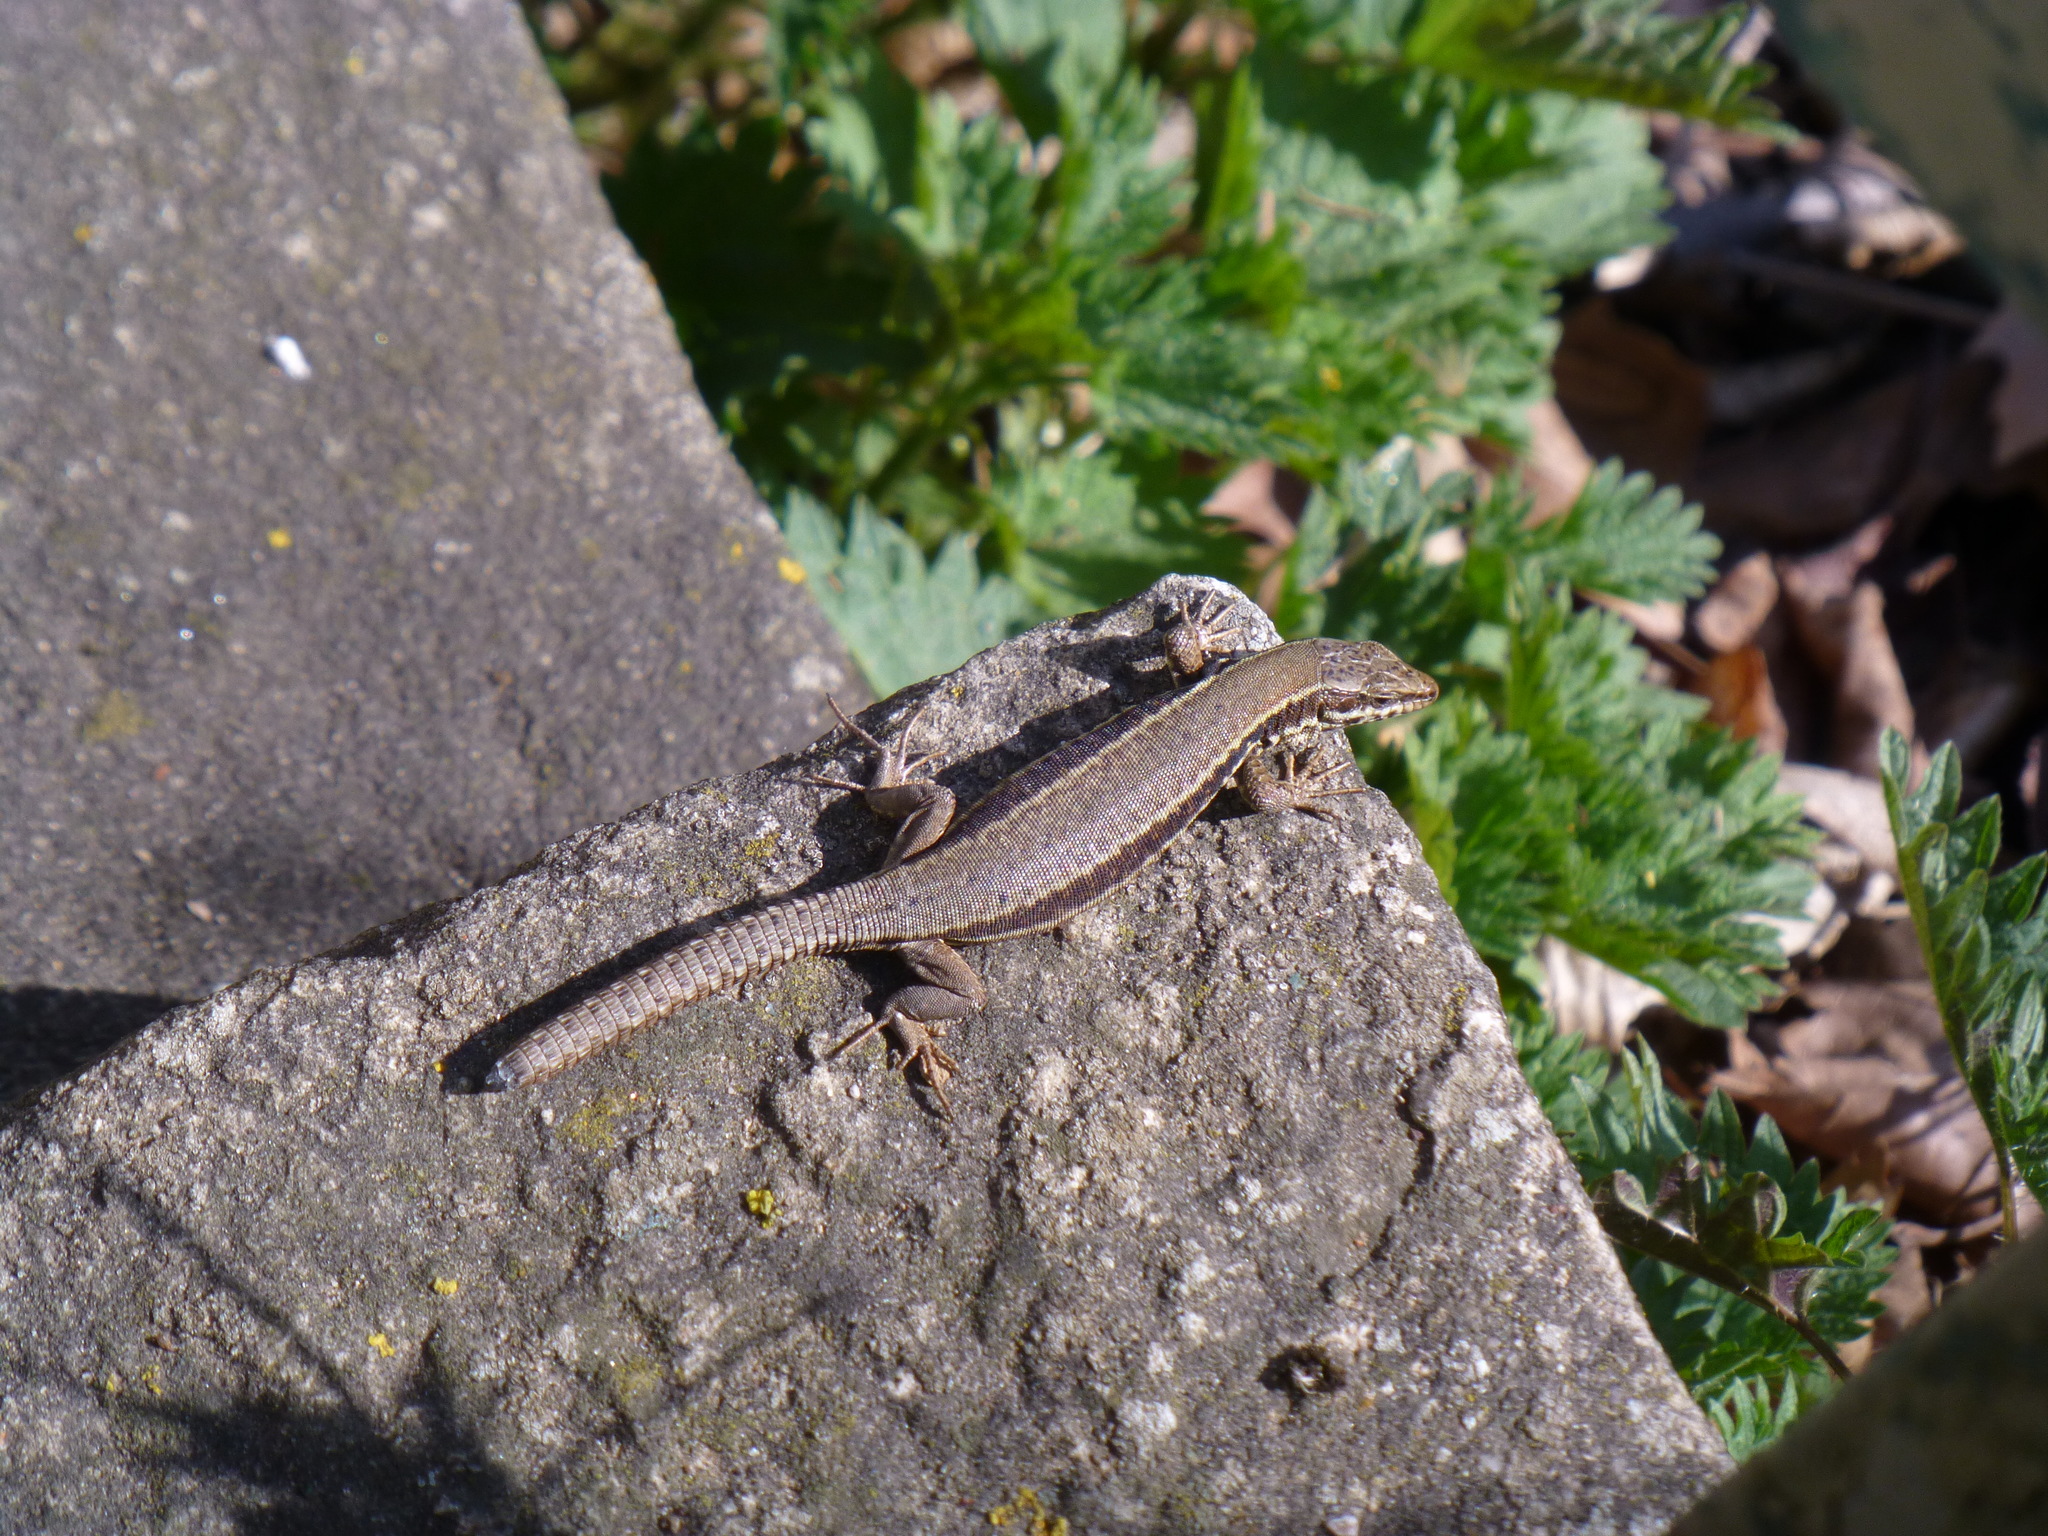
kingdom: Animalia
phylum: Chordata
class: Squamata
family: Lacertidae
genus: Podarcis
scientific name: Podarcis muralis
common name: Common wall lizard
